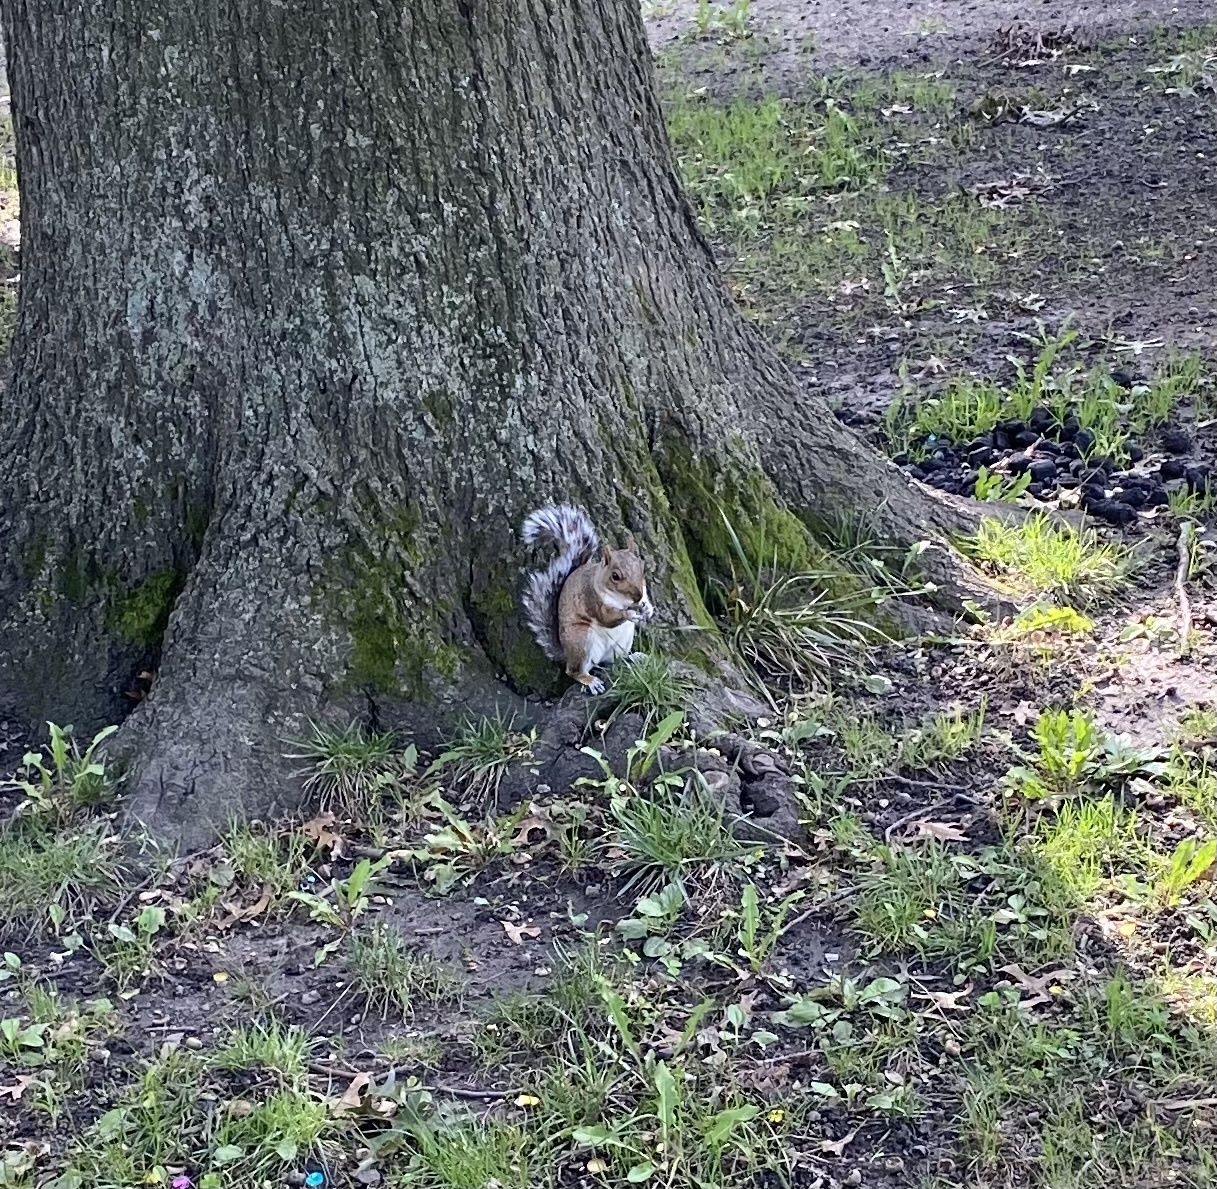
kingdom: Animalia
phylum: Chordata
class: Mammalia
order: Rodentia
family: Sciuridae
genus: Sciurus
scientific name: Sciurus carolinensis
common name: Eastern gray squirrel
